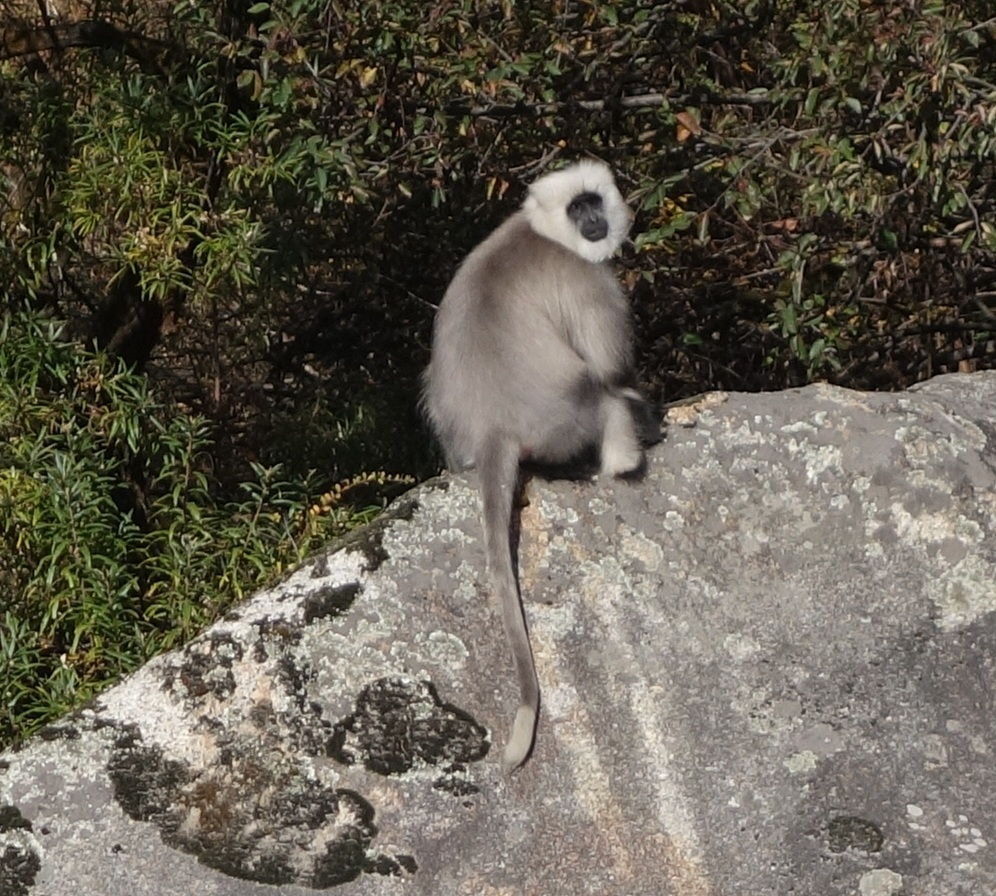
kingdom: Animalia
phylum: Chordata
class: Mammalia
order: Primates
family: Cercopithecidae
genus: Semnopithecus
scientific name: Semnopithecus schistaceus
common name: Nepal gray langur
